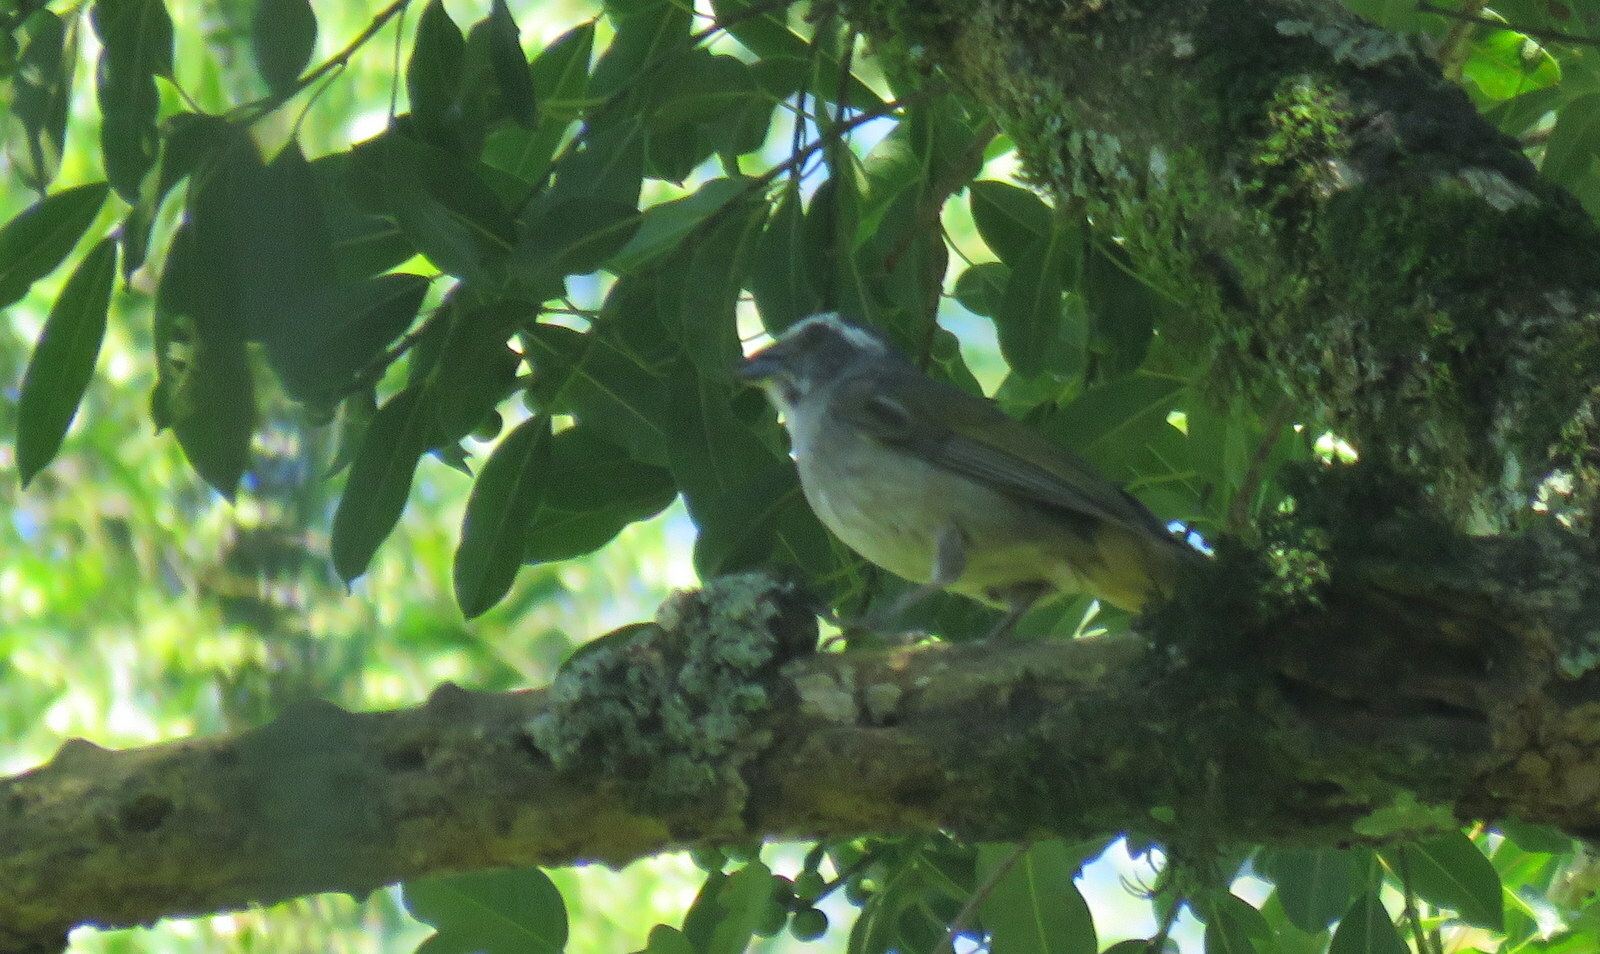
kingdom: Animalia
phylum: Chordata
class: Aves
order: Passeriformes
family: Thraupidae
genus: Saltator
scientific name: Saltator similis
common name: Green-winged saltator
